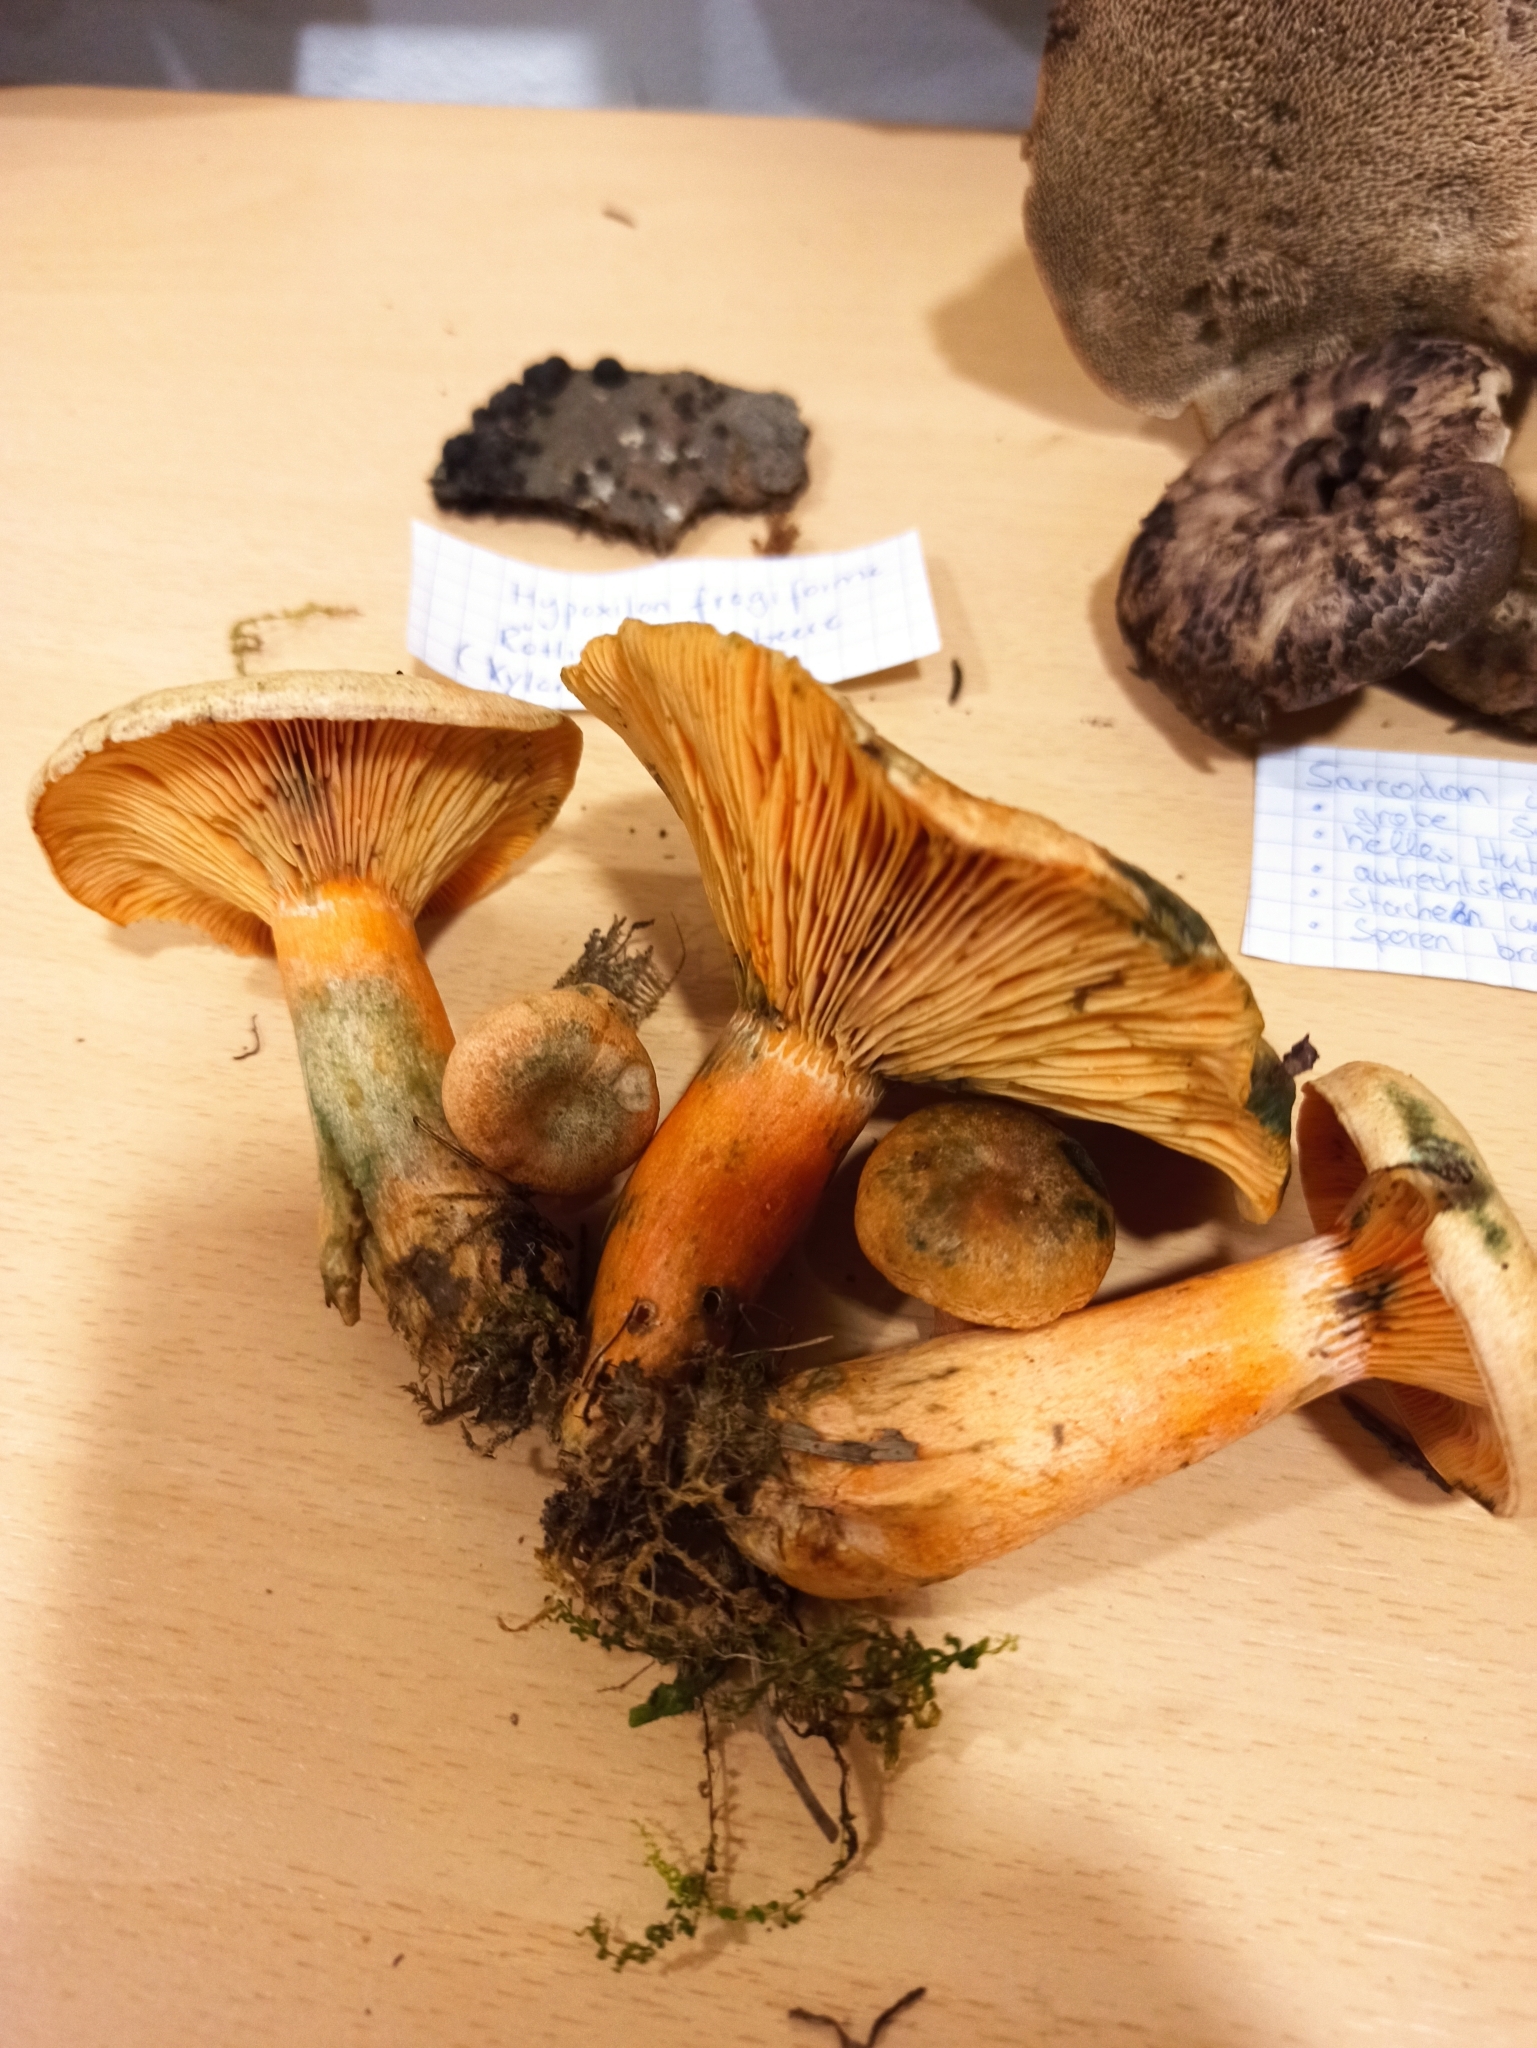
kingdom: Fungi
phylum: Basidiomycota
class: Agaricomycetes
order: Russulales
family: Russulaceae
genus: Lactarius
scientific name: Lactarius deterrimus
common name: False saffron milkcap
